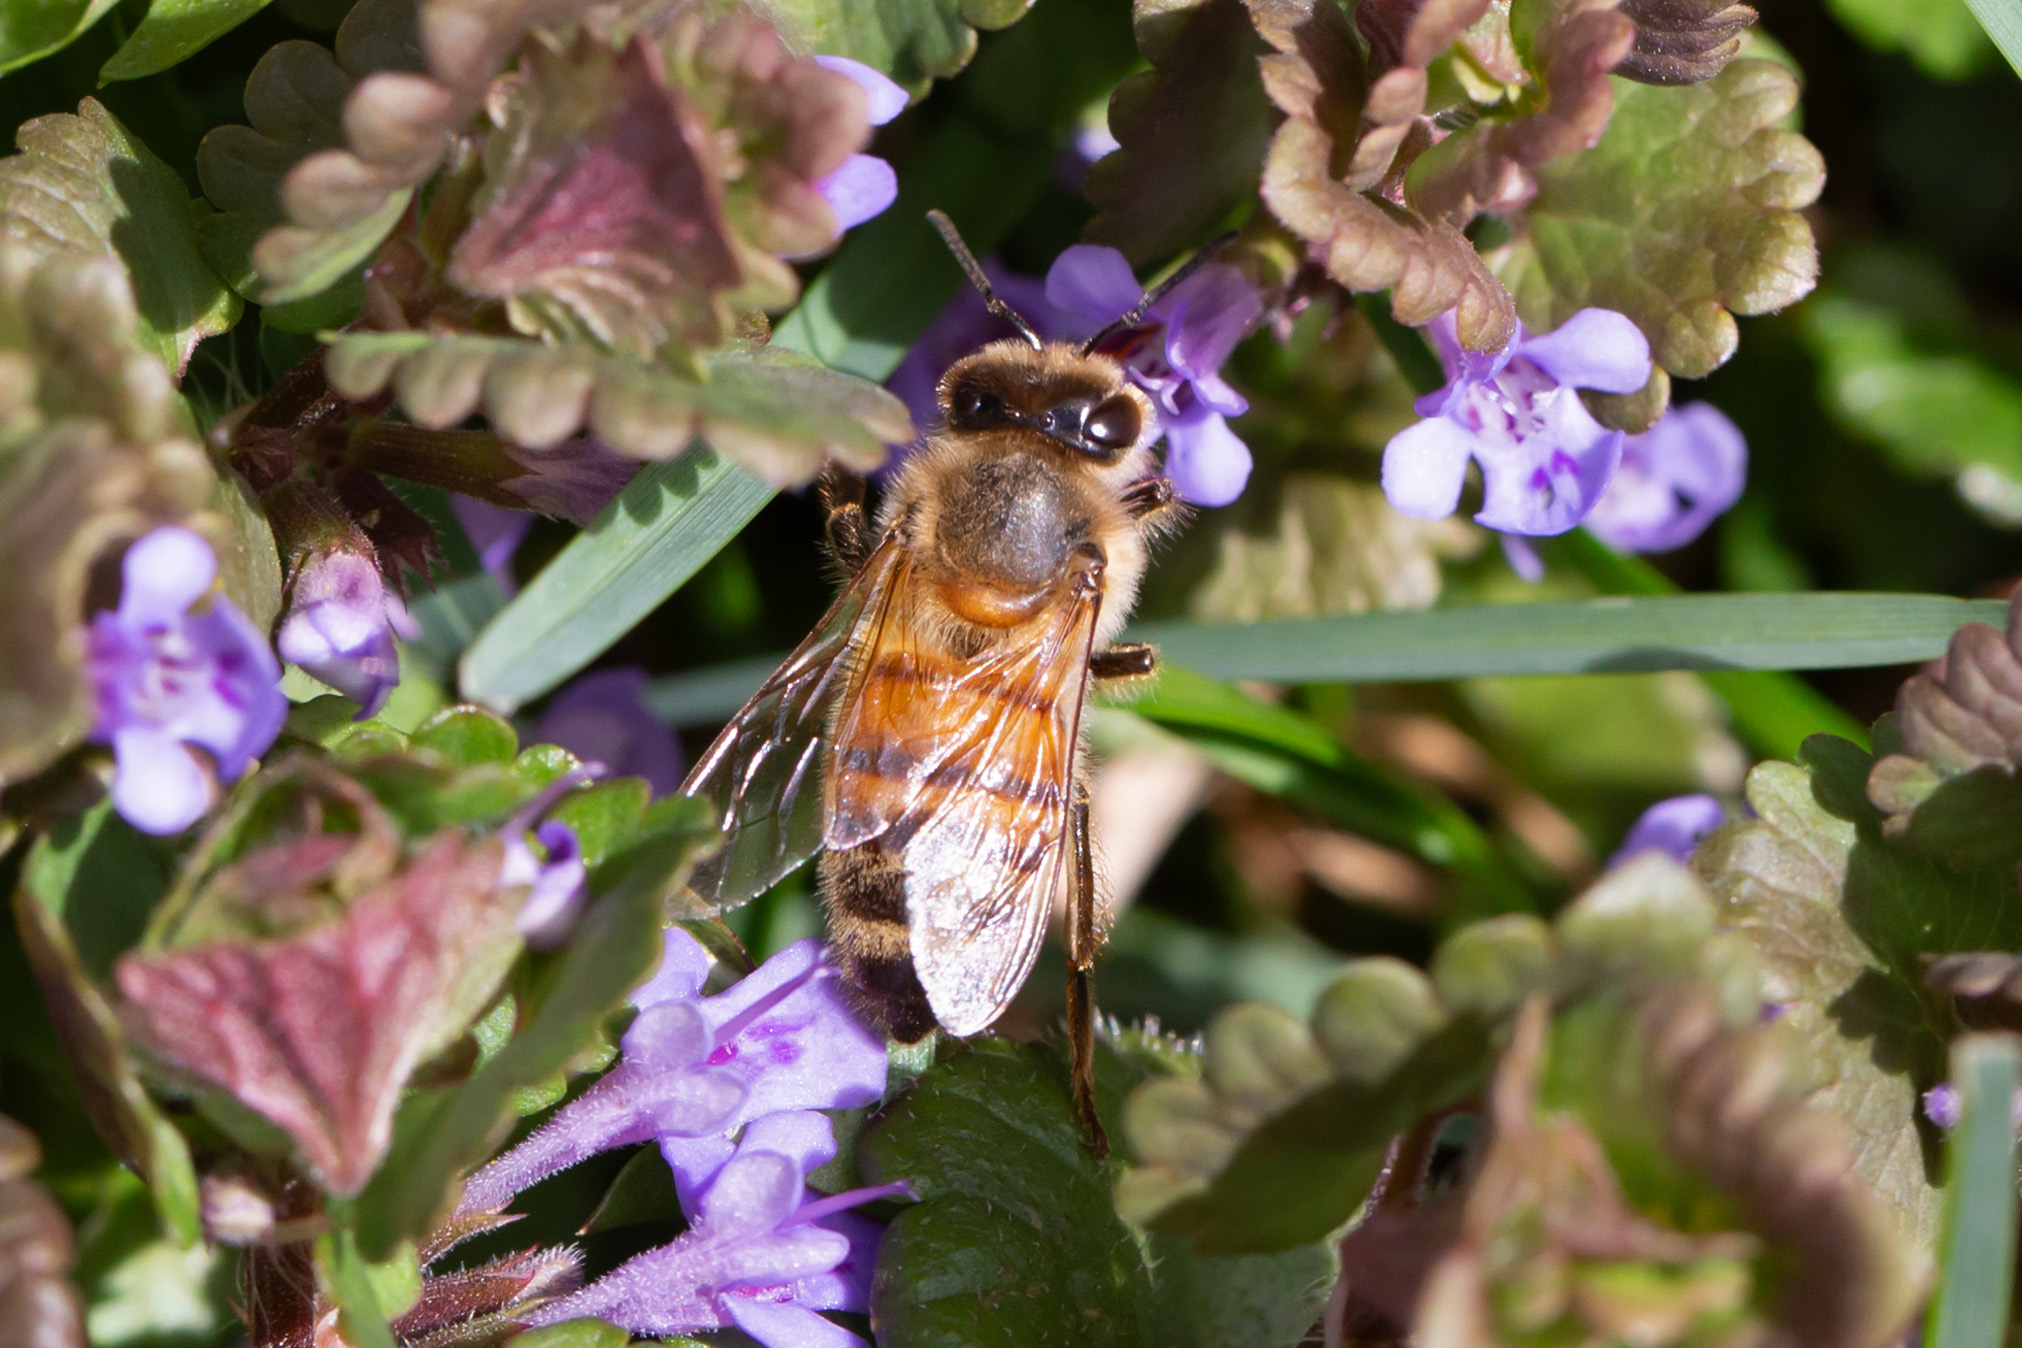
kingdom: Animalia
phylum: Arthropoda
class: Insecta
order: Hymenoptera
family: Apidae
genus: Apis
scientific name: Apis mellifera
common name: Honey bee
